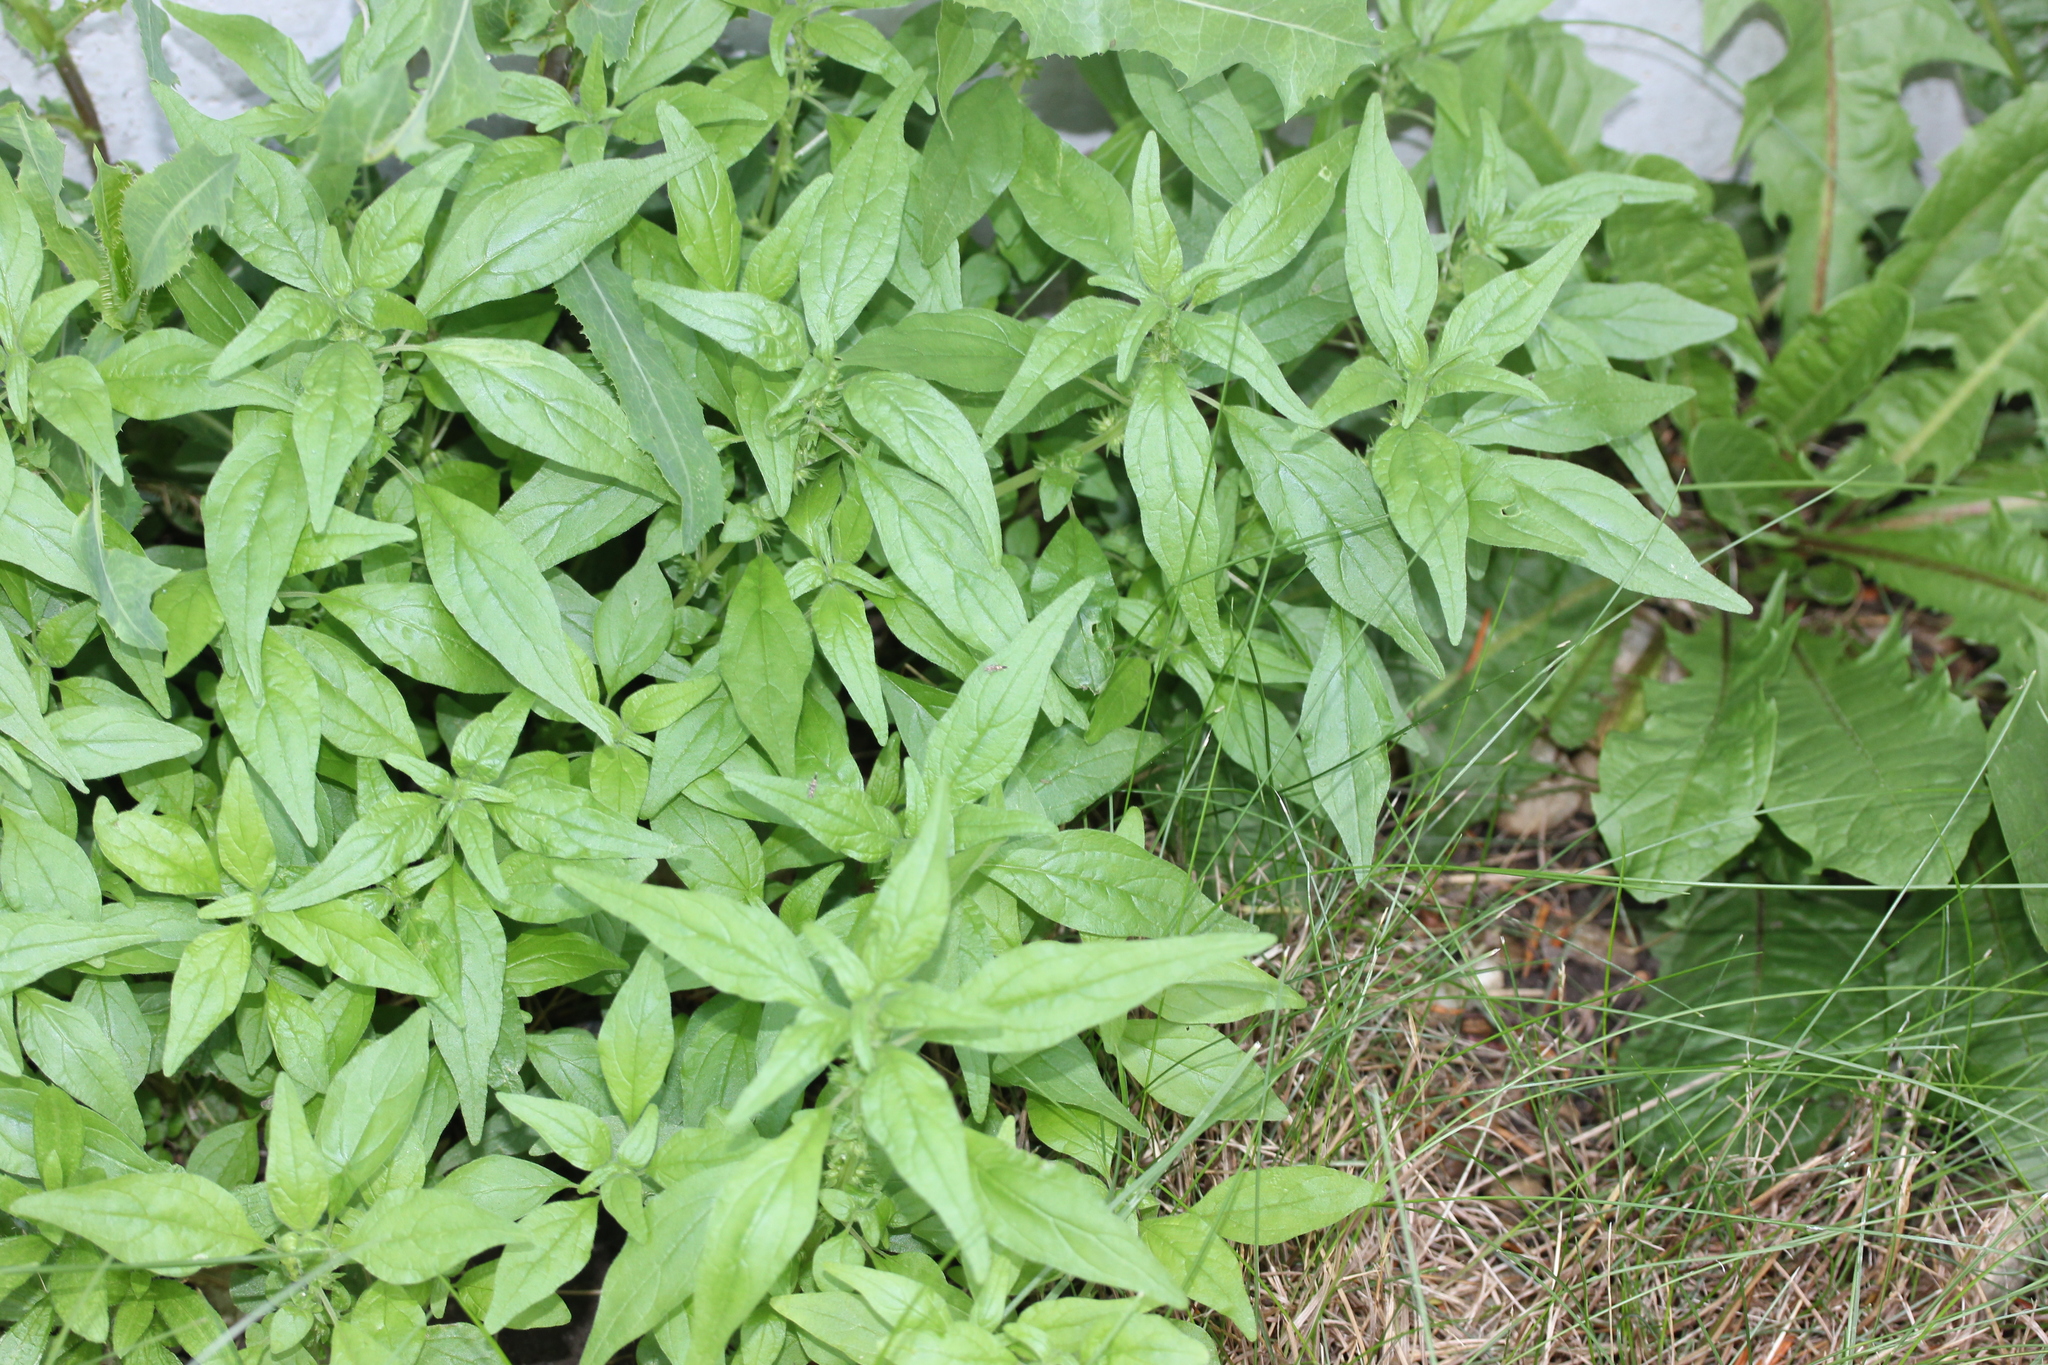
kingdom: Plantae
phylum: Tracheophyta
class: Magnoliopsida
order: Rosales
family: Urticaceae
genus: Parietaria
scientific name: Parietaria pensylvanica
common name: Pennsylvania pellitory
